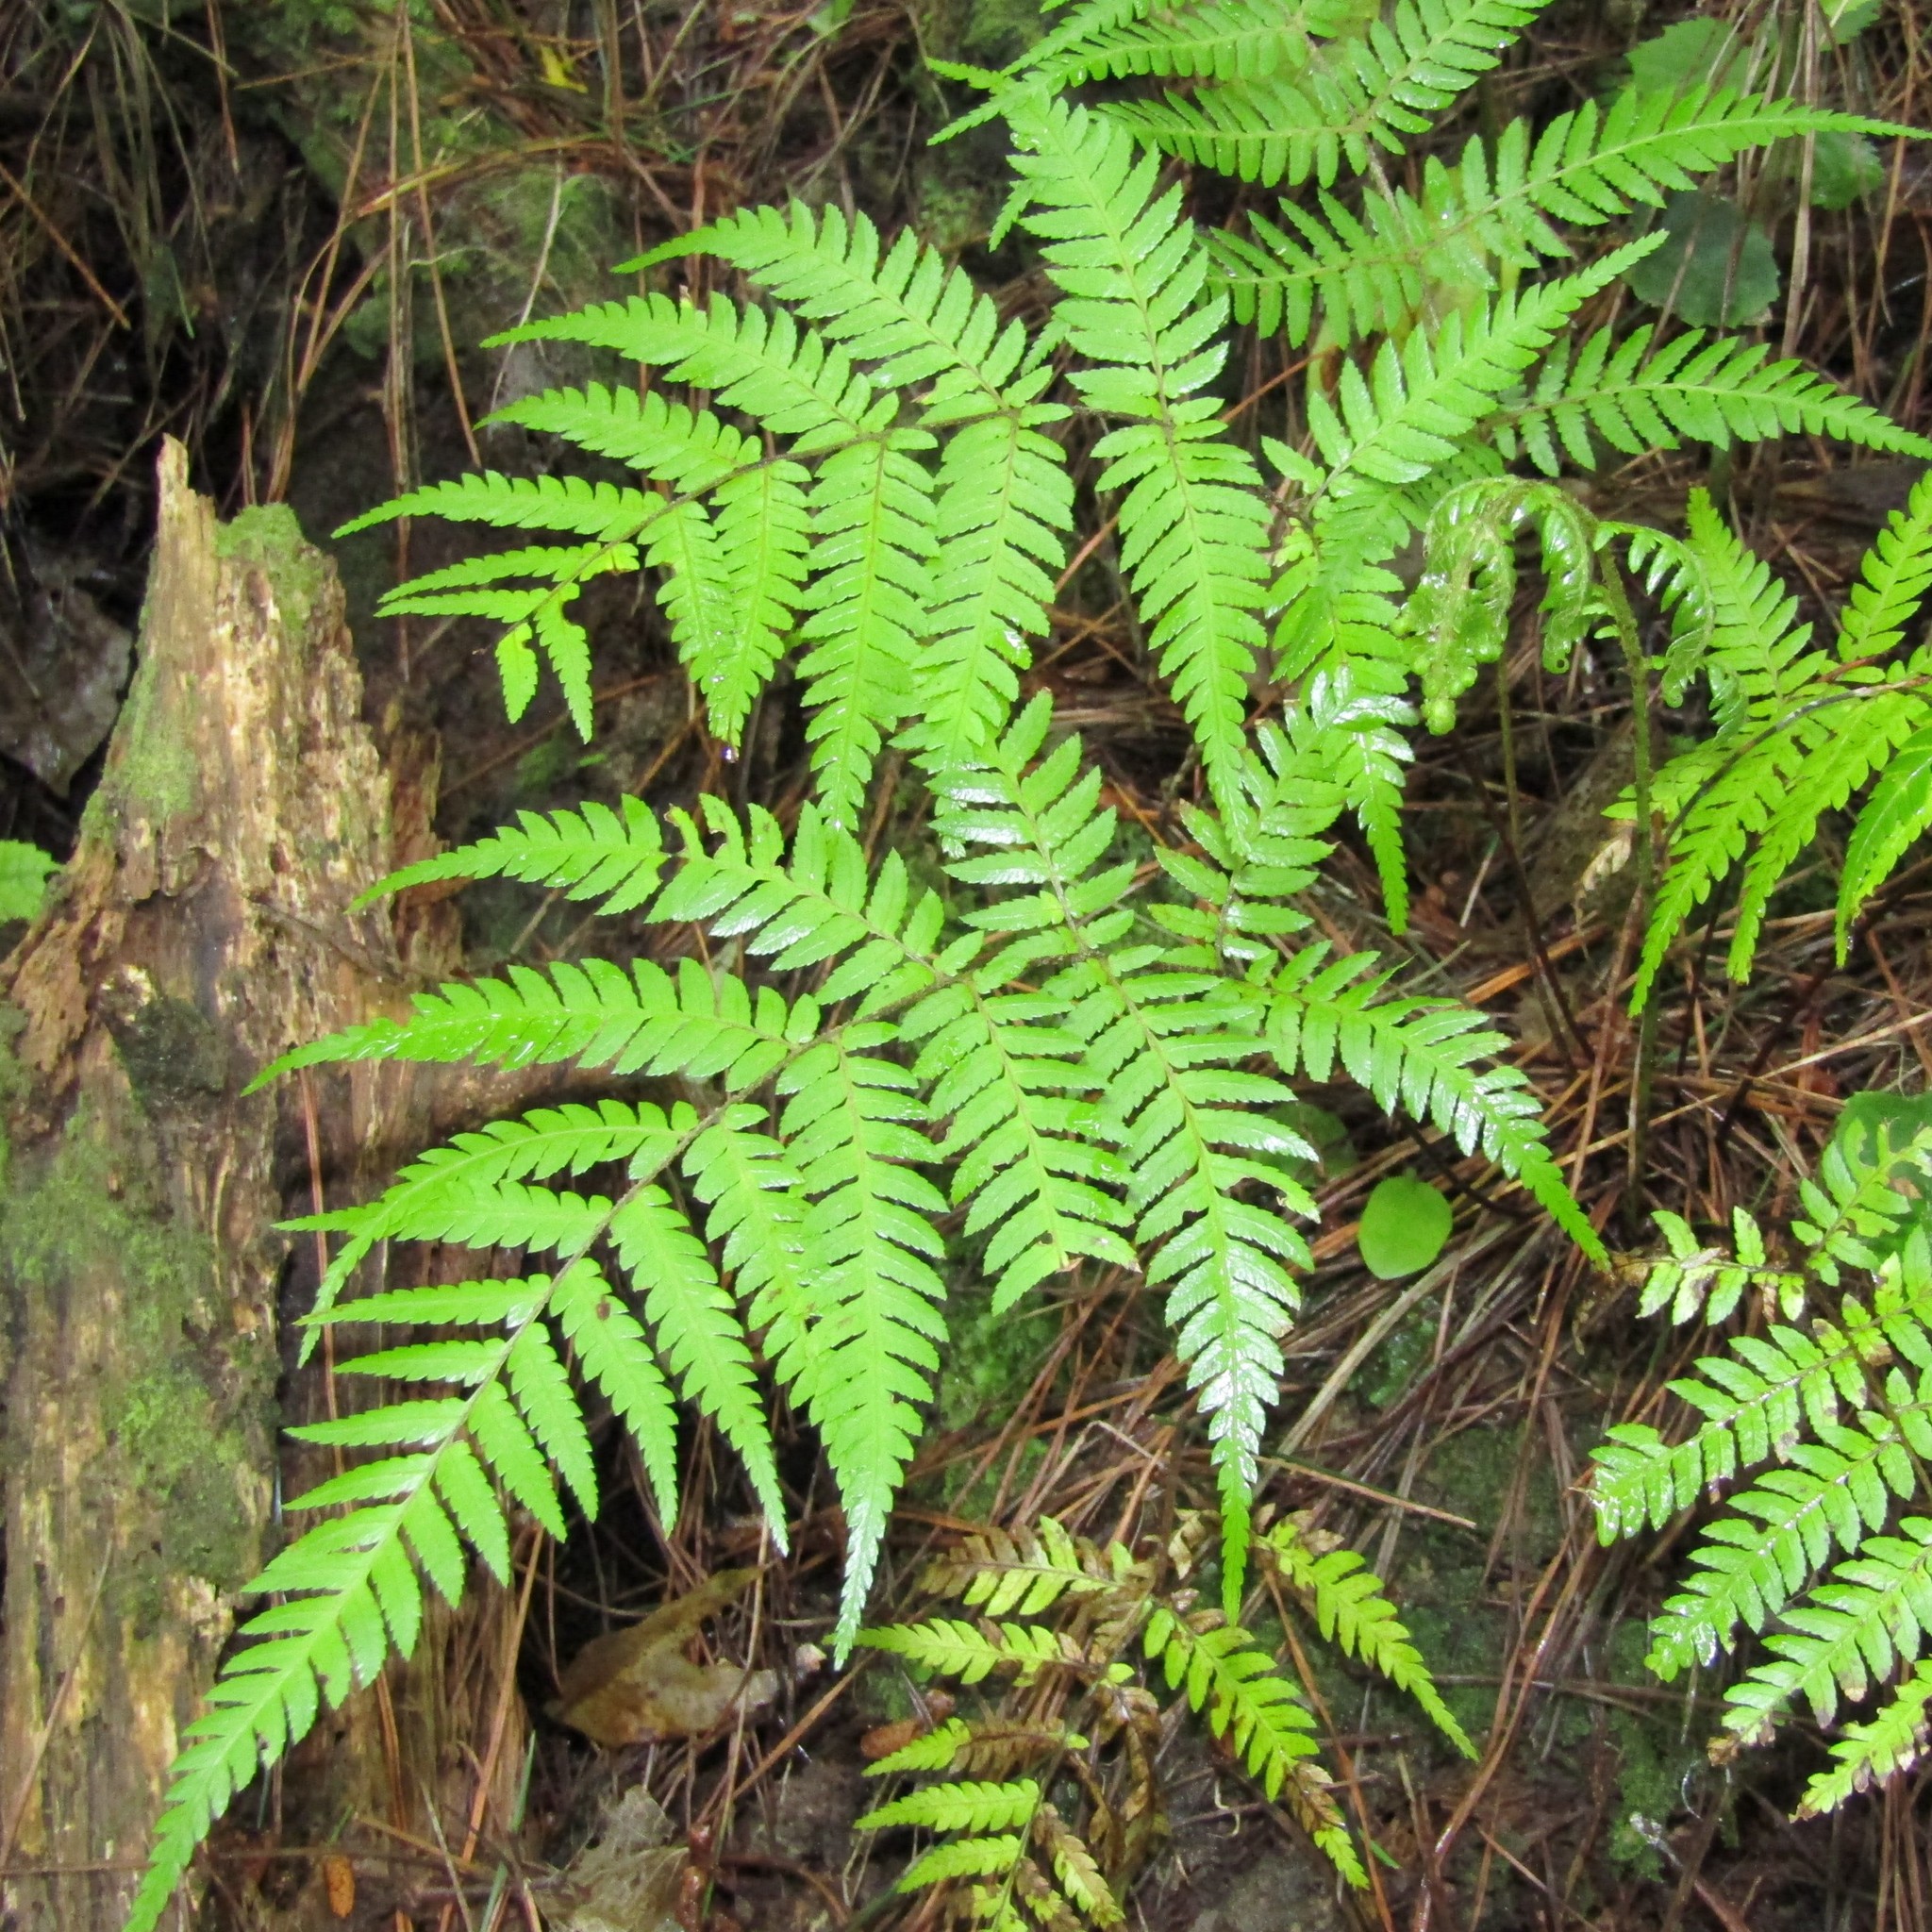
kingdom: Plantae
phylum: Tracheophyta
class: Polypodiopsida
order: Cyatheales
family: Cyatheaceae
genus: Alsophila
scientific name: Alsophila dealbata
